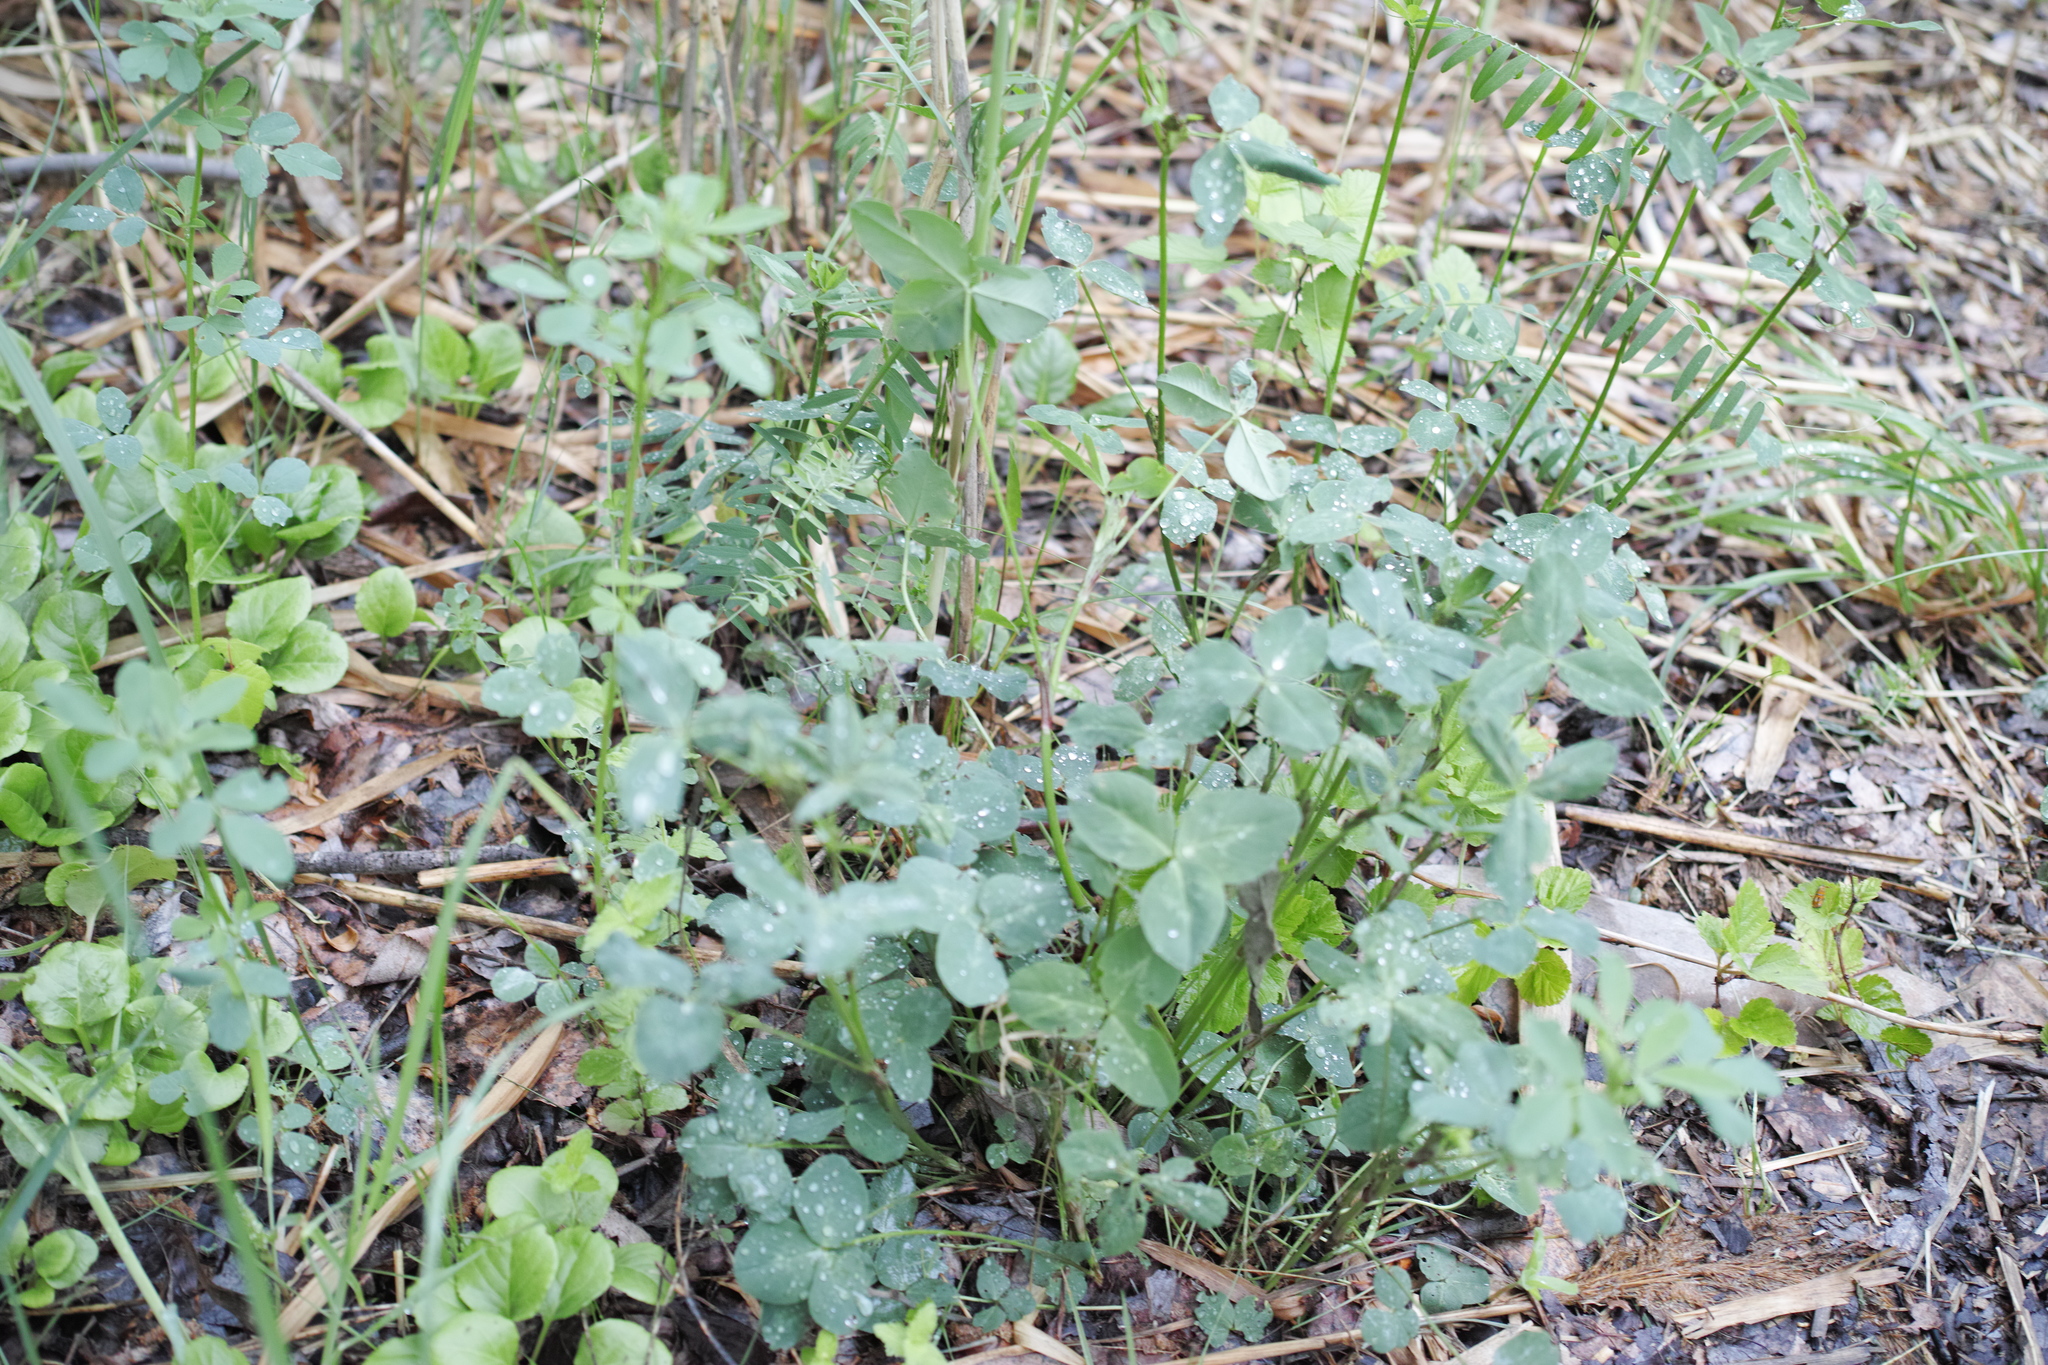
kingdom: Plantae
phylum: Tracheophyta
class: Magnoliopsida
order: Fabales
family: Fabaceae
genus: Trifolium
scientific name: Trifolium pratense
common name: Red clover
